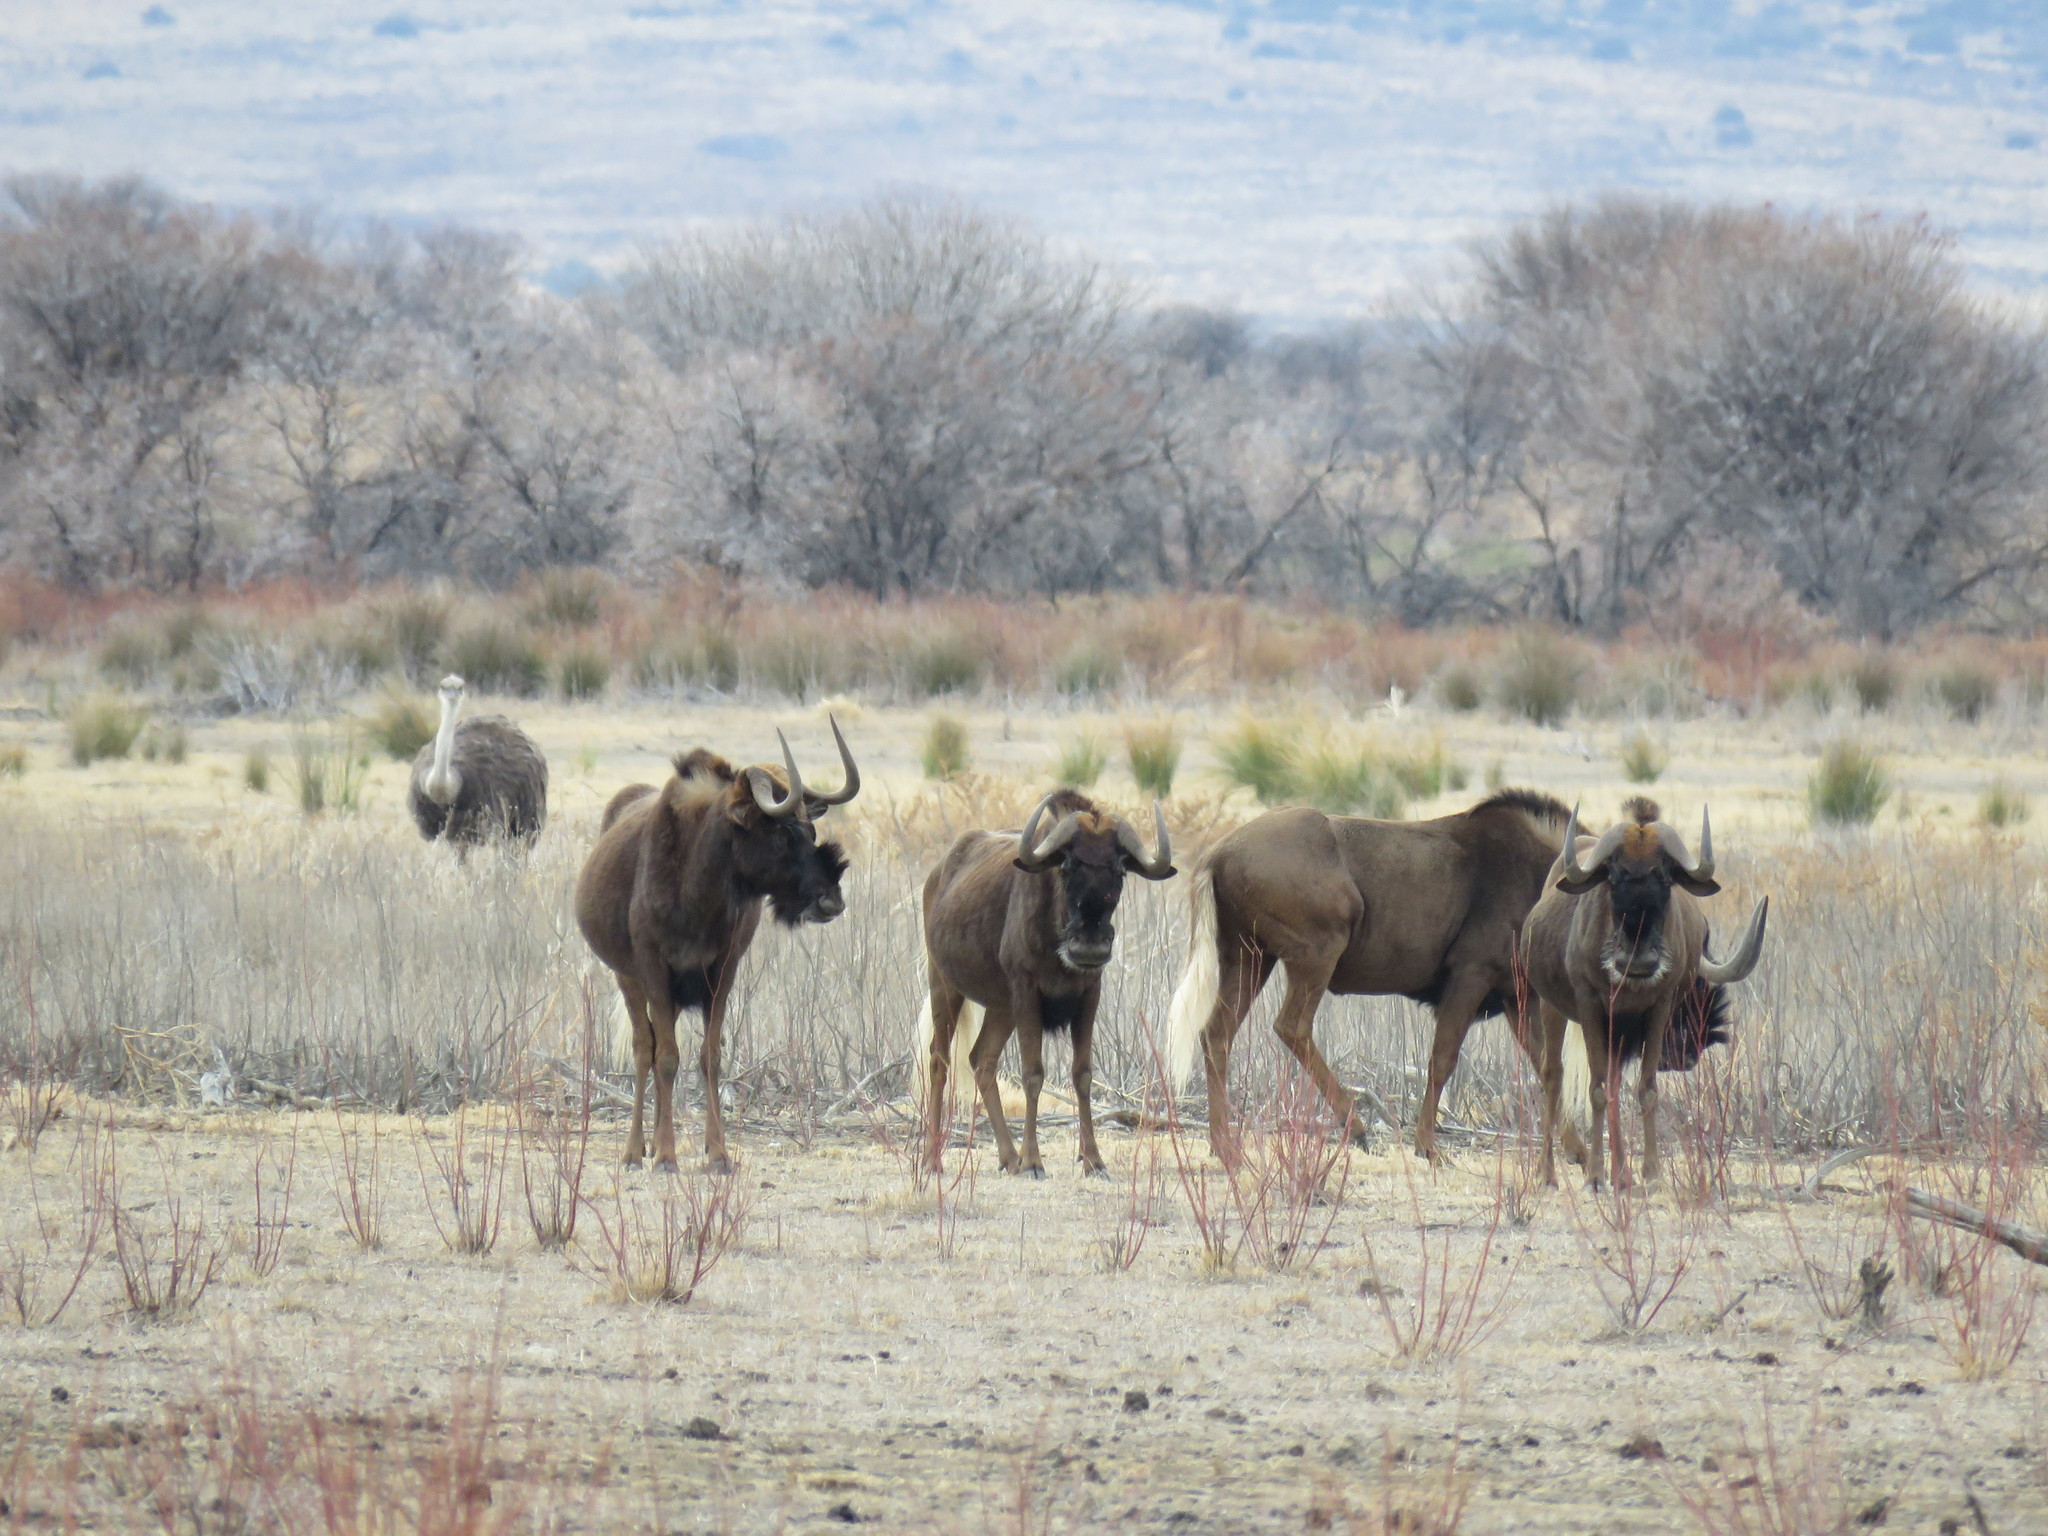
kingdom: Animalia
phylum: Chordata
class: Mammalia
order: Artiodactyla
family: Bovidae
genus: Connochaetes
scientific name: Connochaetes gnou
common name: Black wildebeest
